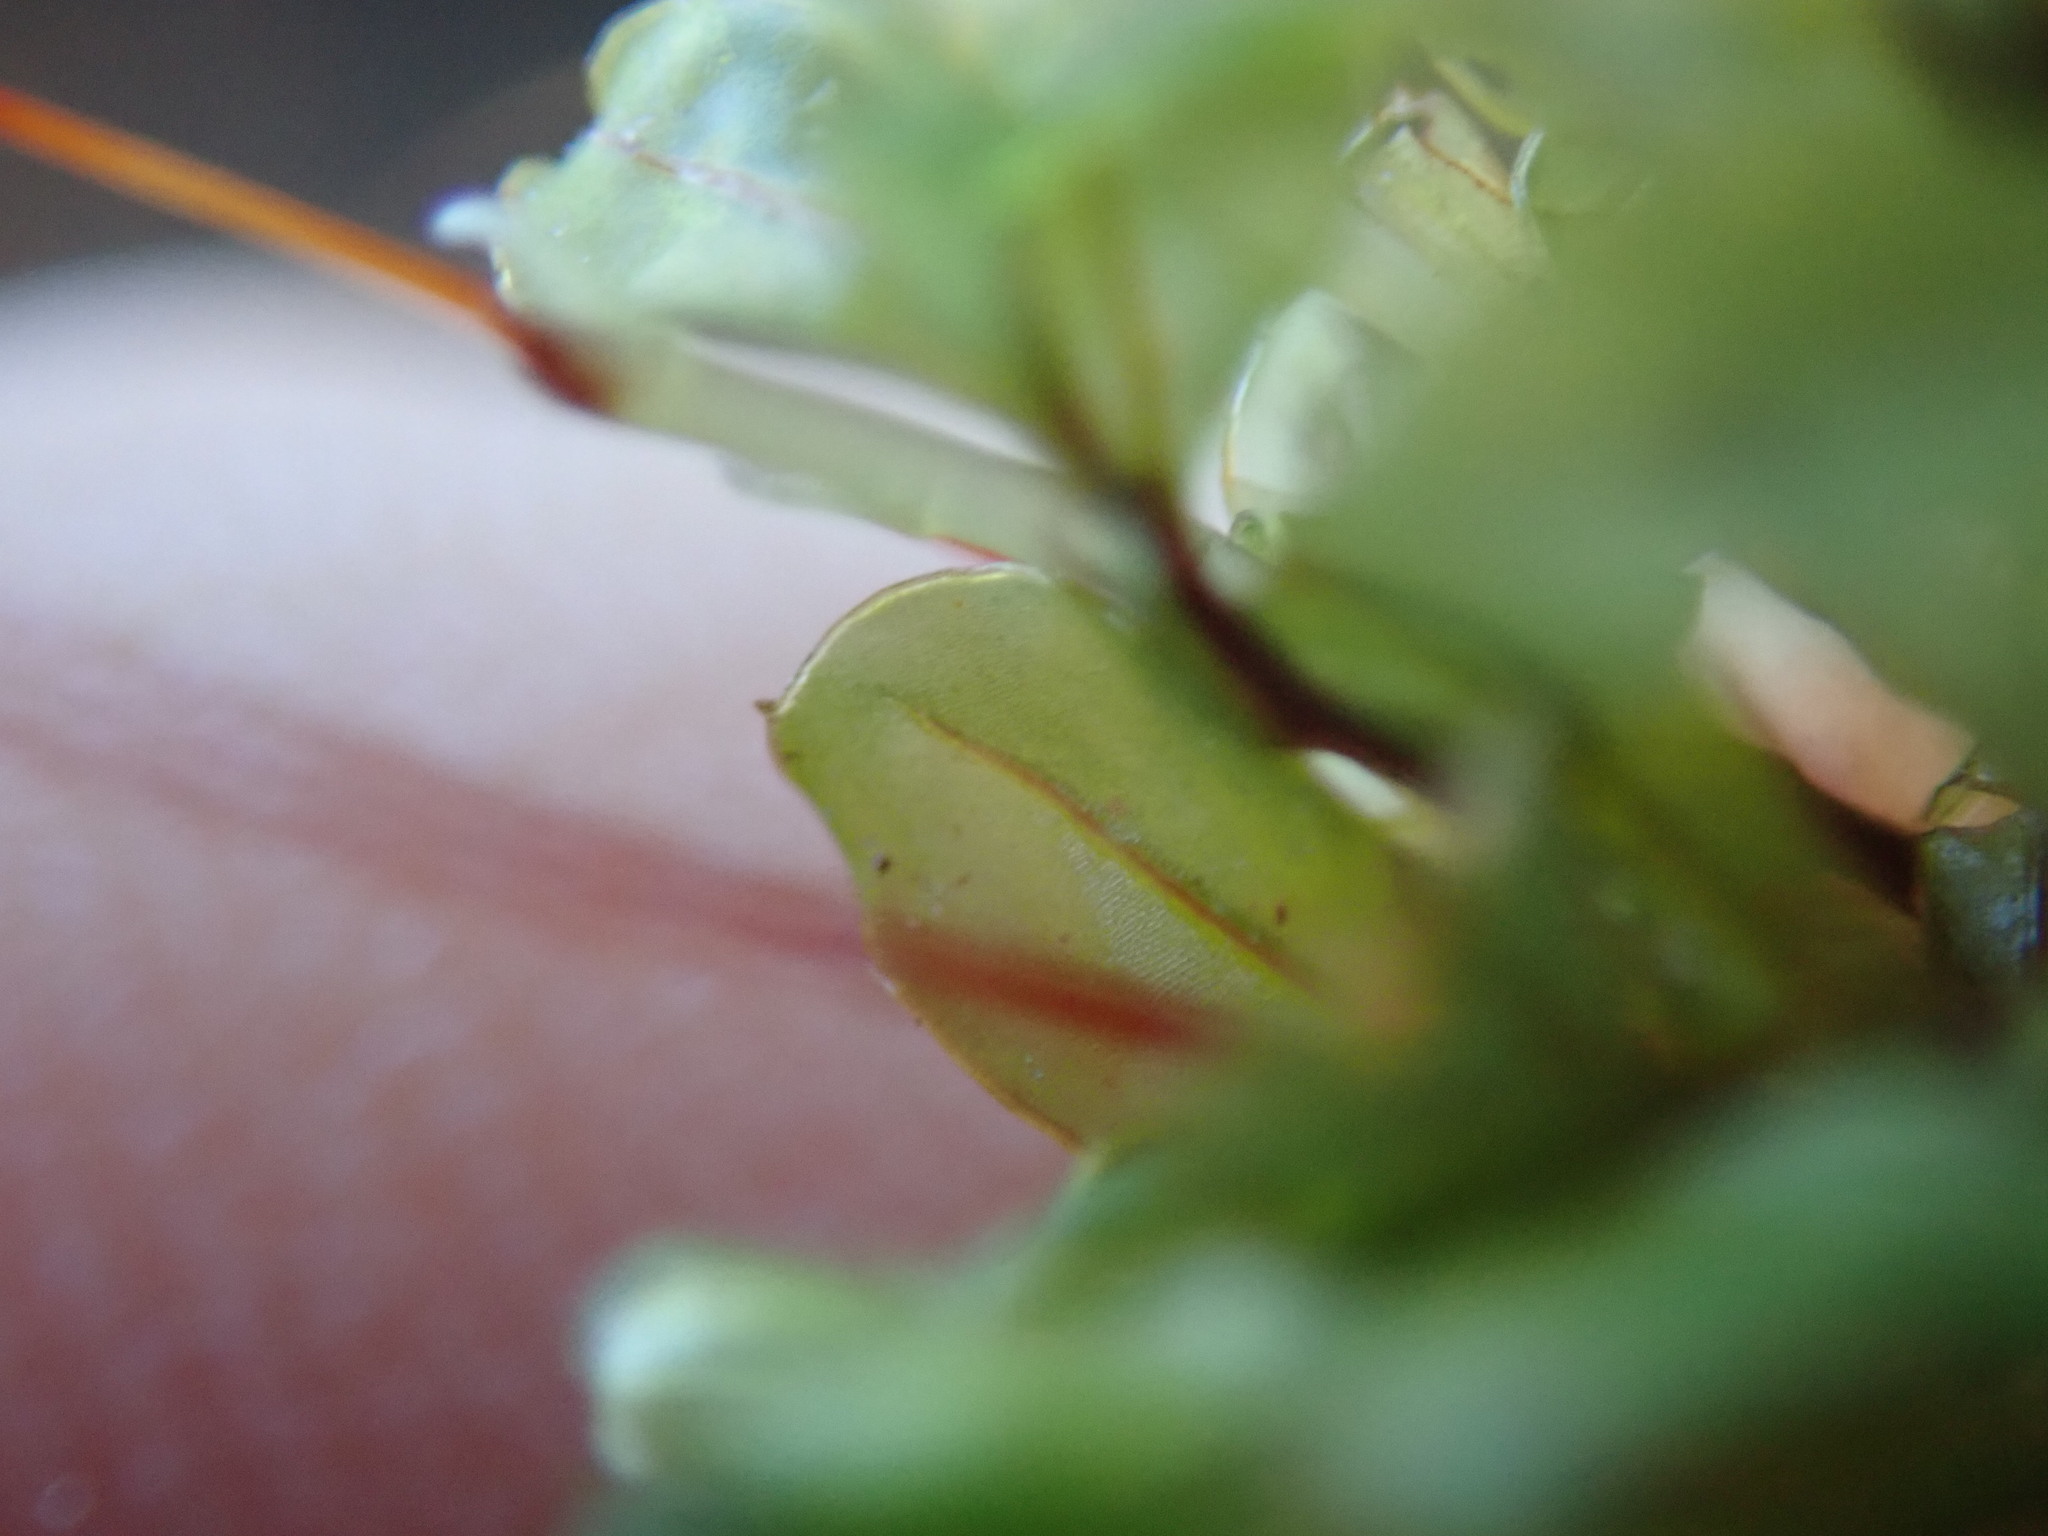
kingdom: Plantae
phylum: Bryophyta
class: Bryopsida
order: Bryales
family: Mniaceae
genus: Rhizomnium
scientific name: Rhizomnium glabrescens
